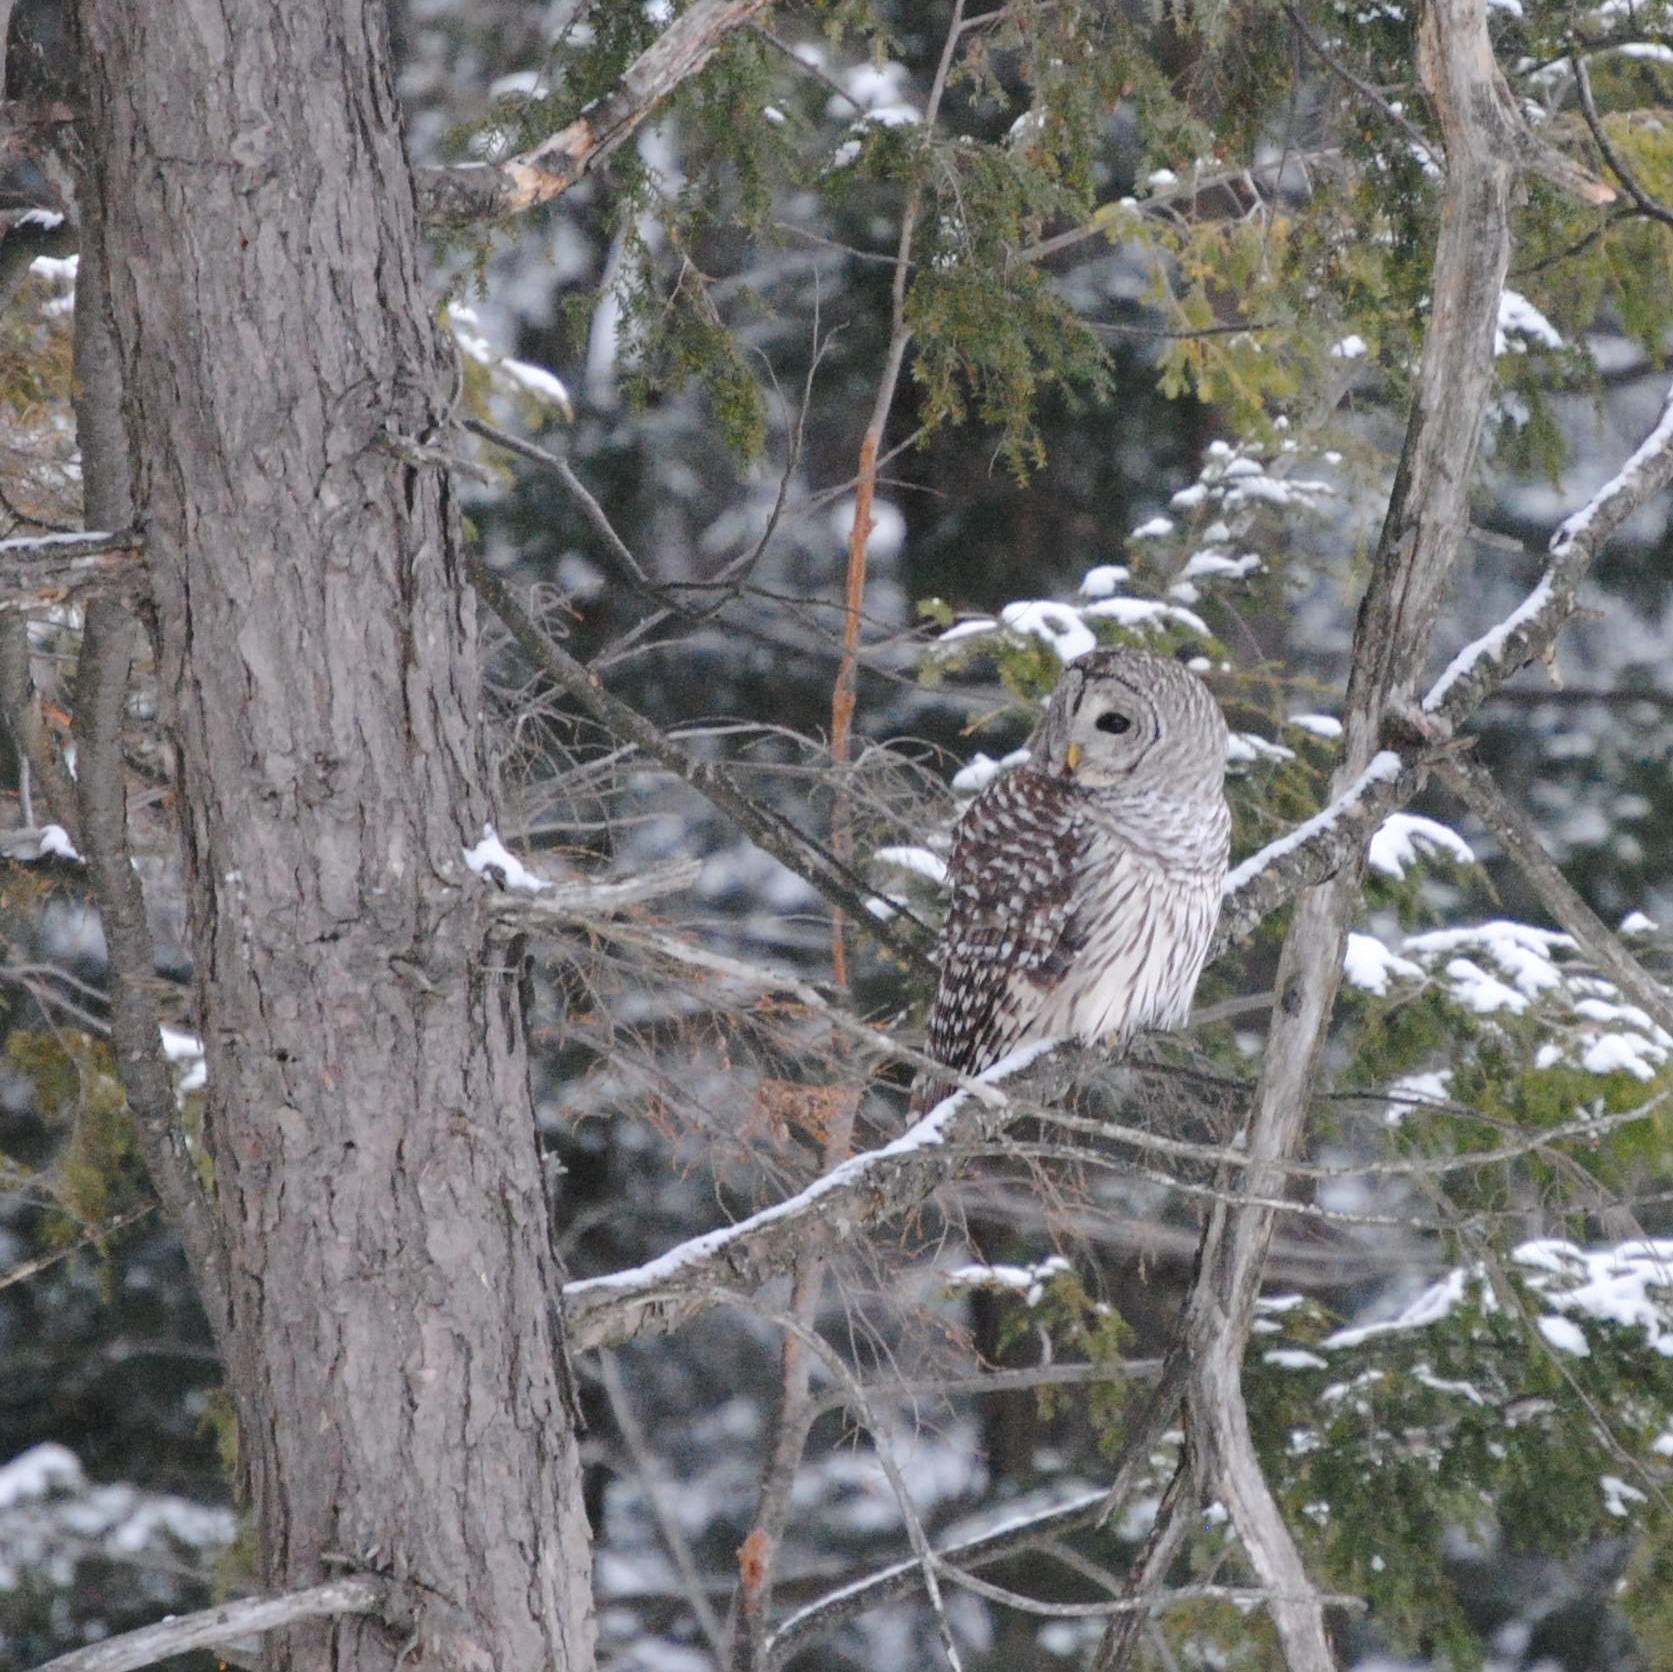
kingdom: Animalia
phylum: Chordata
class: Aves
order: Strigiformes
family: Strigidae
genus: Strix
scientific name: Strix varia
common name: Barred owl
